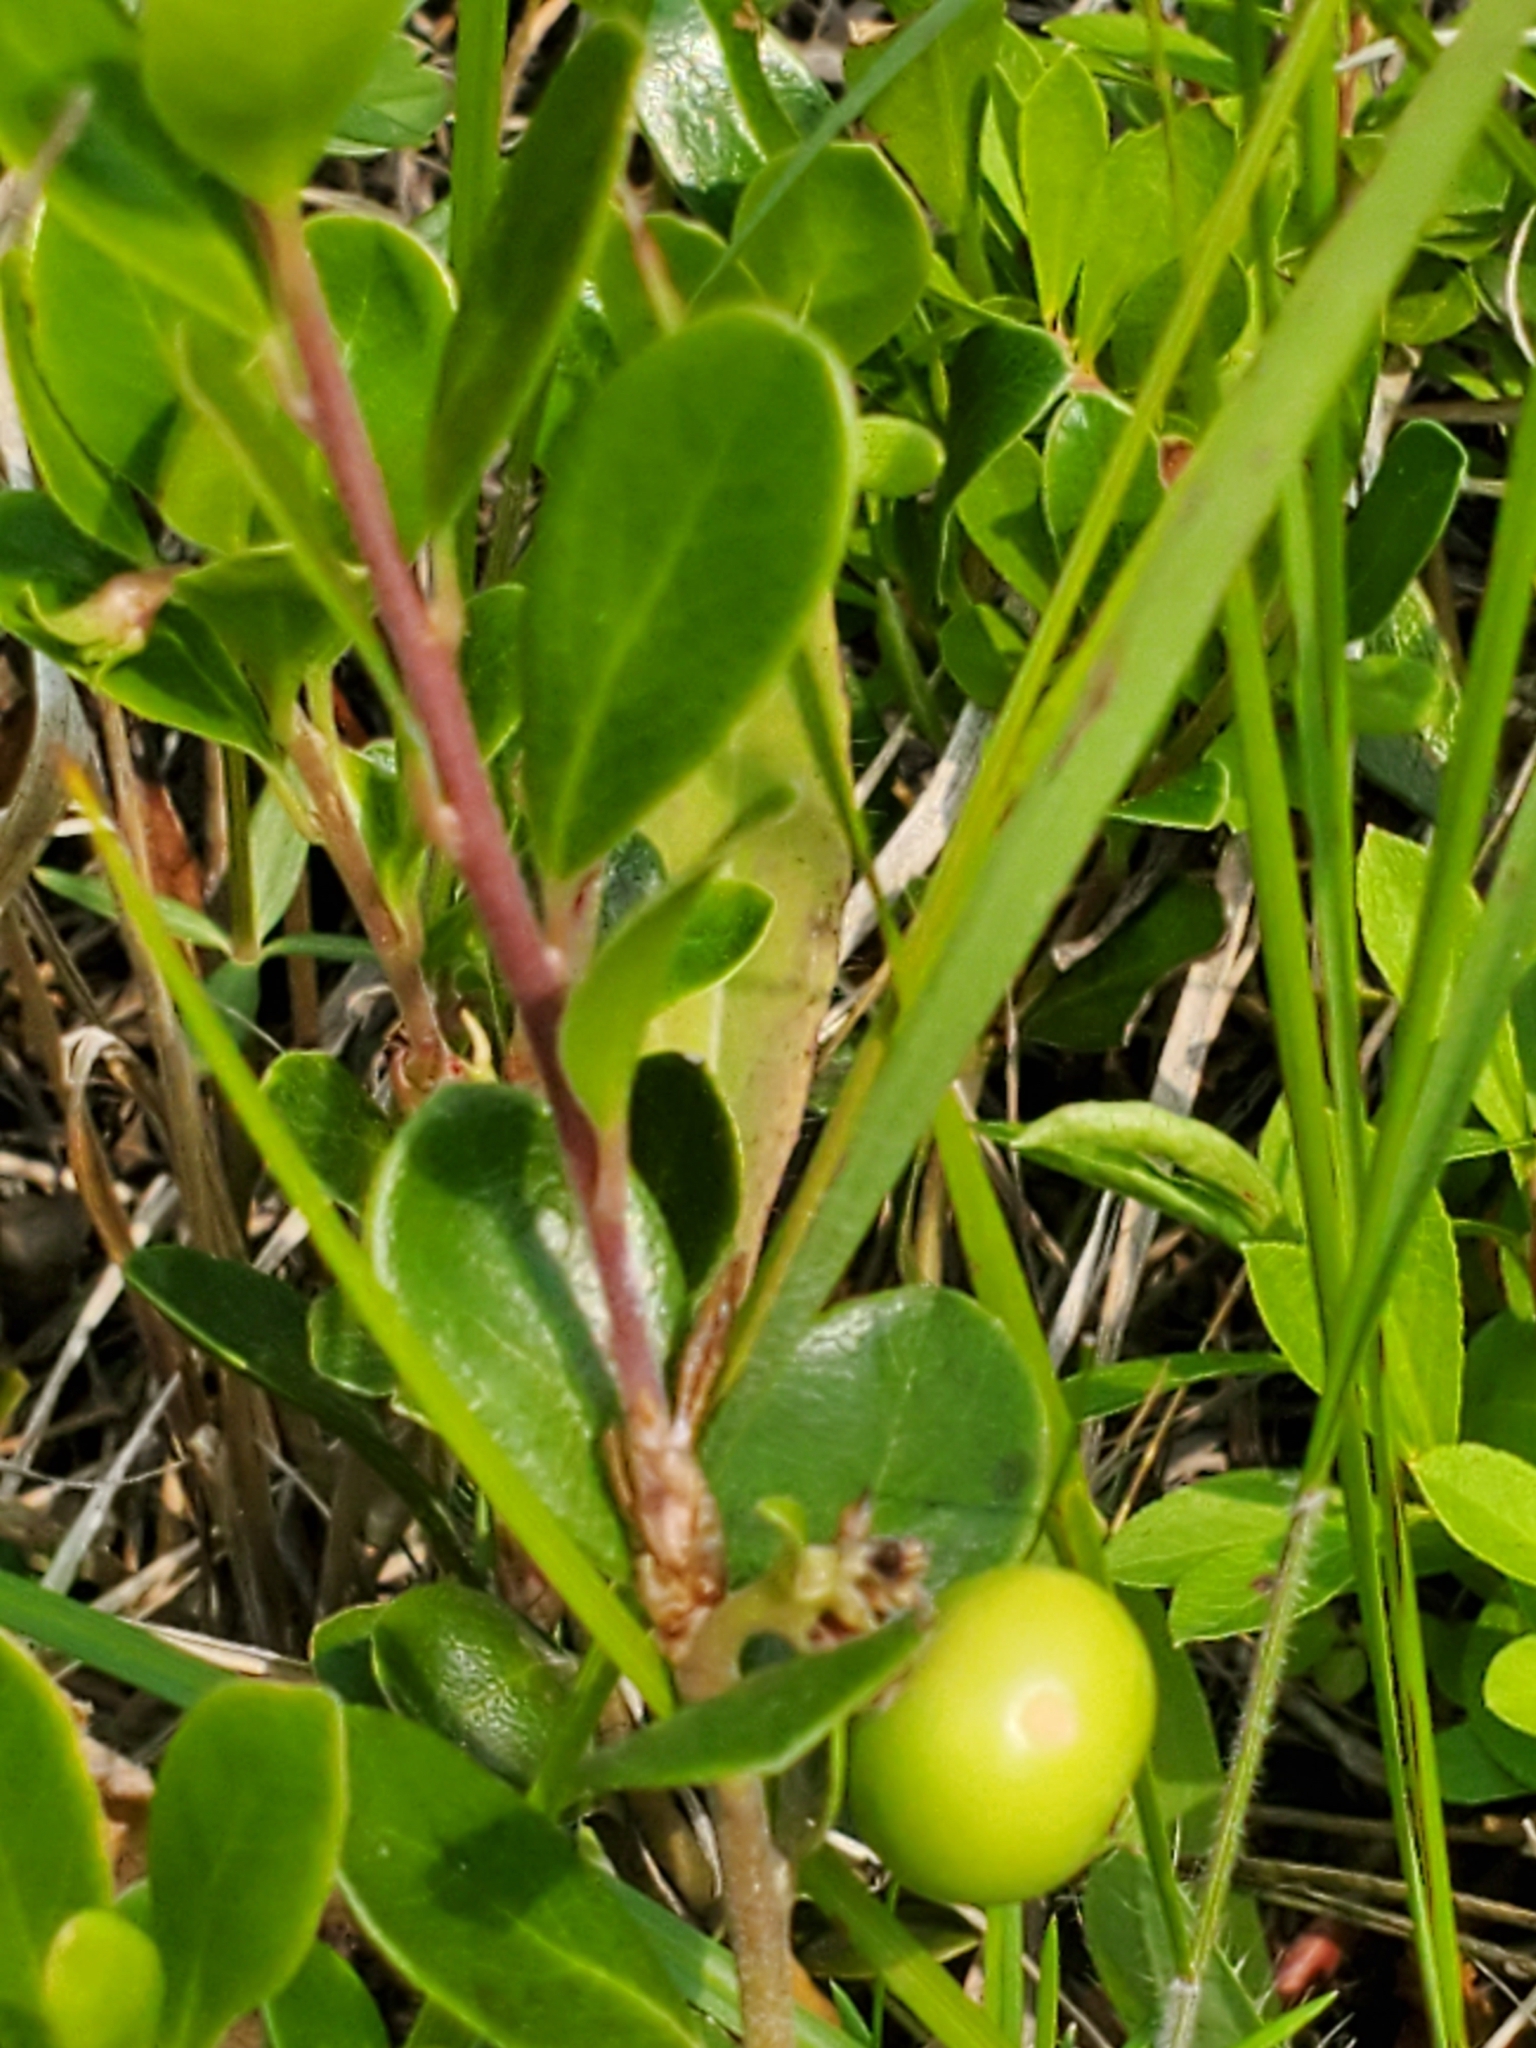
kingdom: Plantae
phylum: Tracheophyta
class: Magnoliopsida
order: Ericales
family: Ericaceae
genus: Arctostaphylos
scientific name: Arctostaphylos uva-ursi
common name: Bearberry
